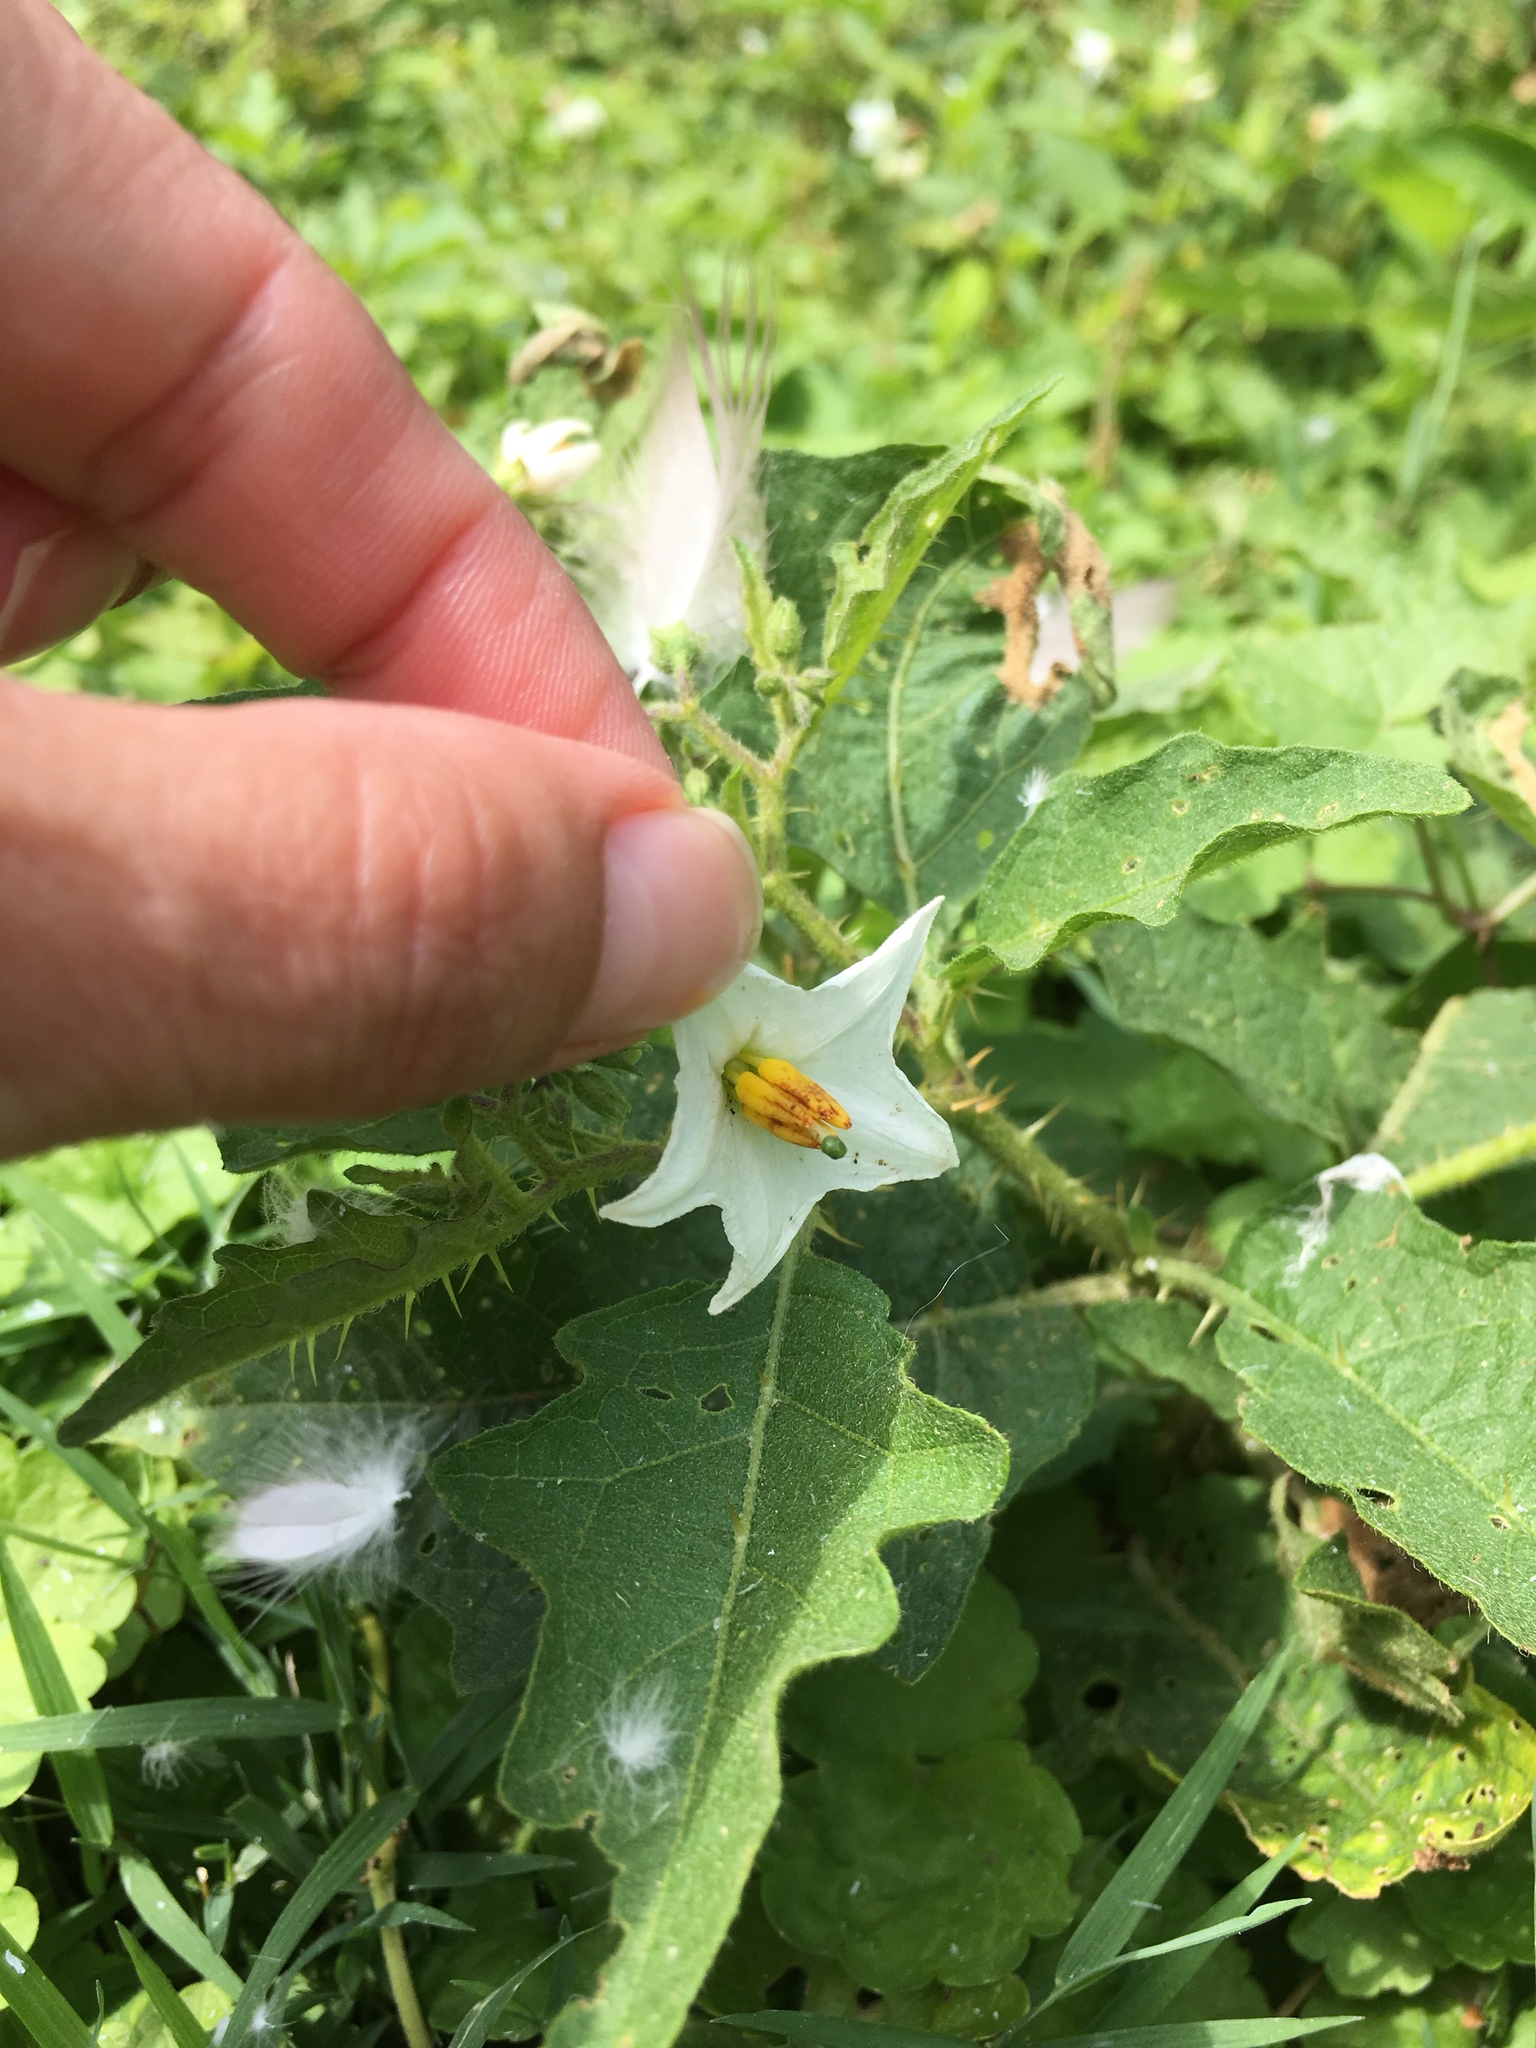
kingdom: Plantae
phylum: Tracheophyta
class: Magnoliopsida
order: Solanales
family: Solanaceae
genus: Solanum
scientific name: Solanum carolinense
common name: Horse-nettle
